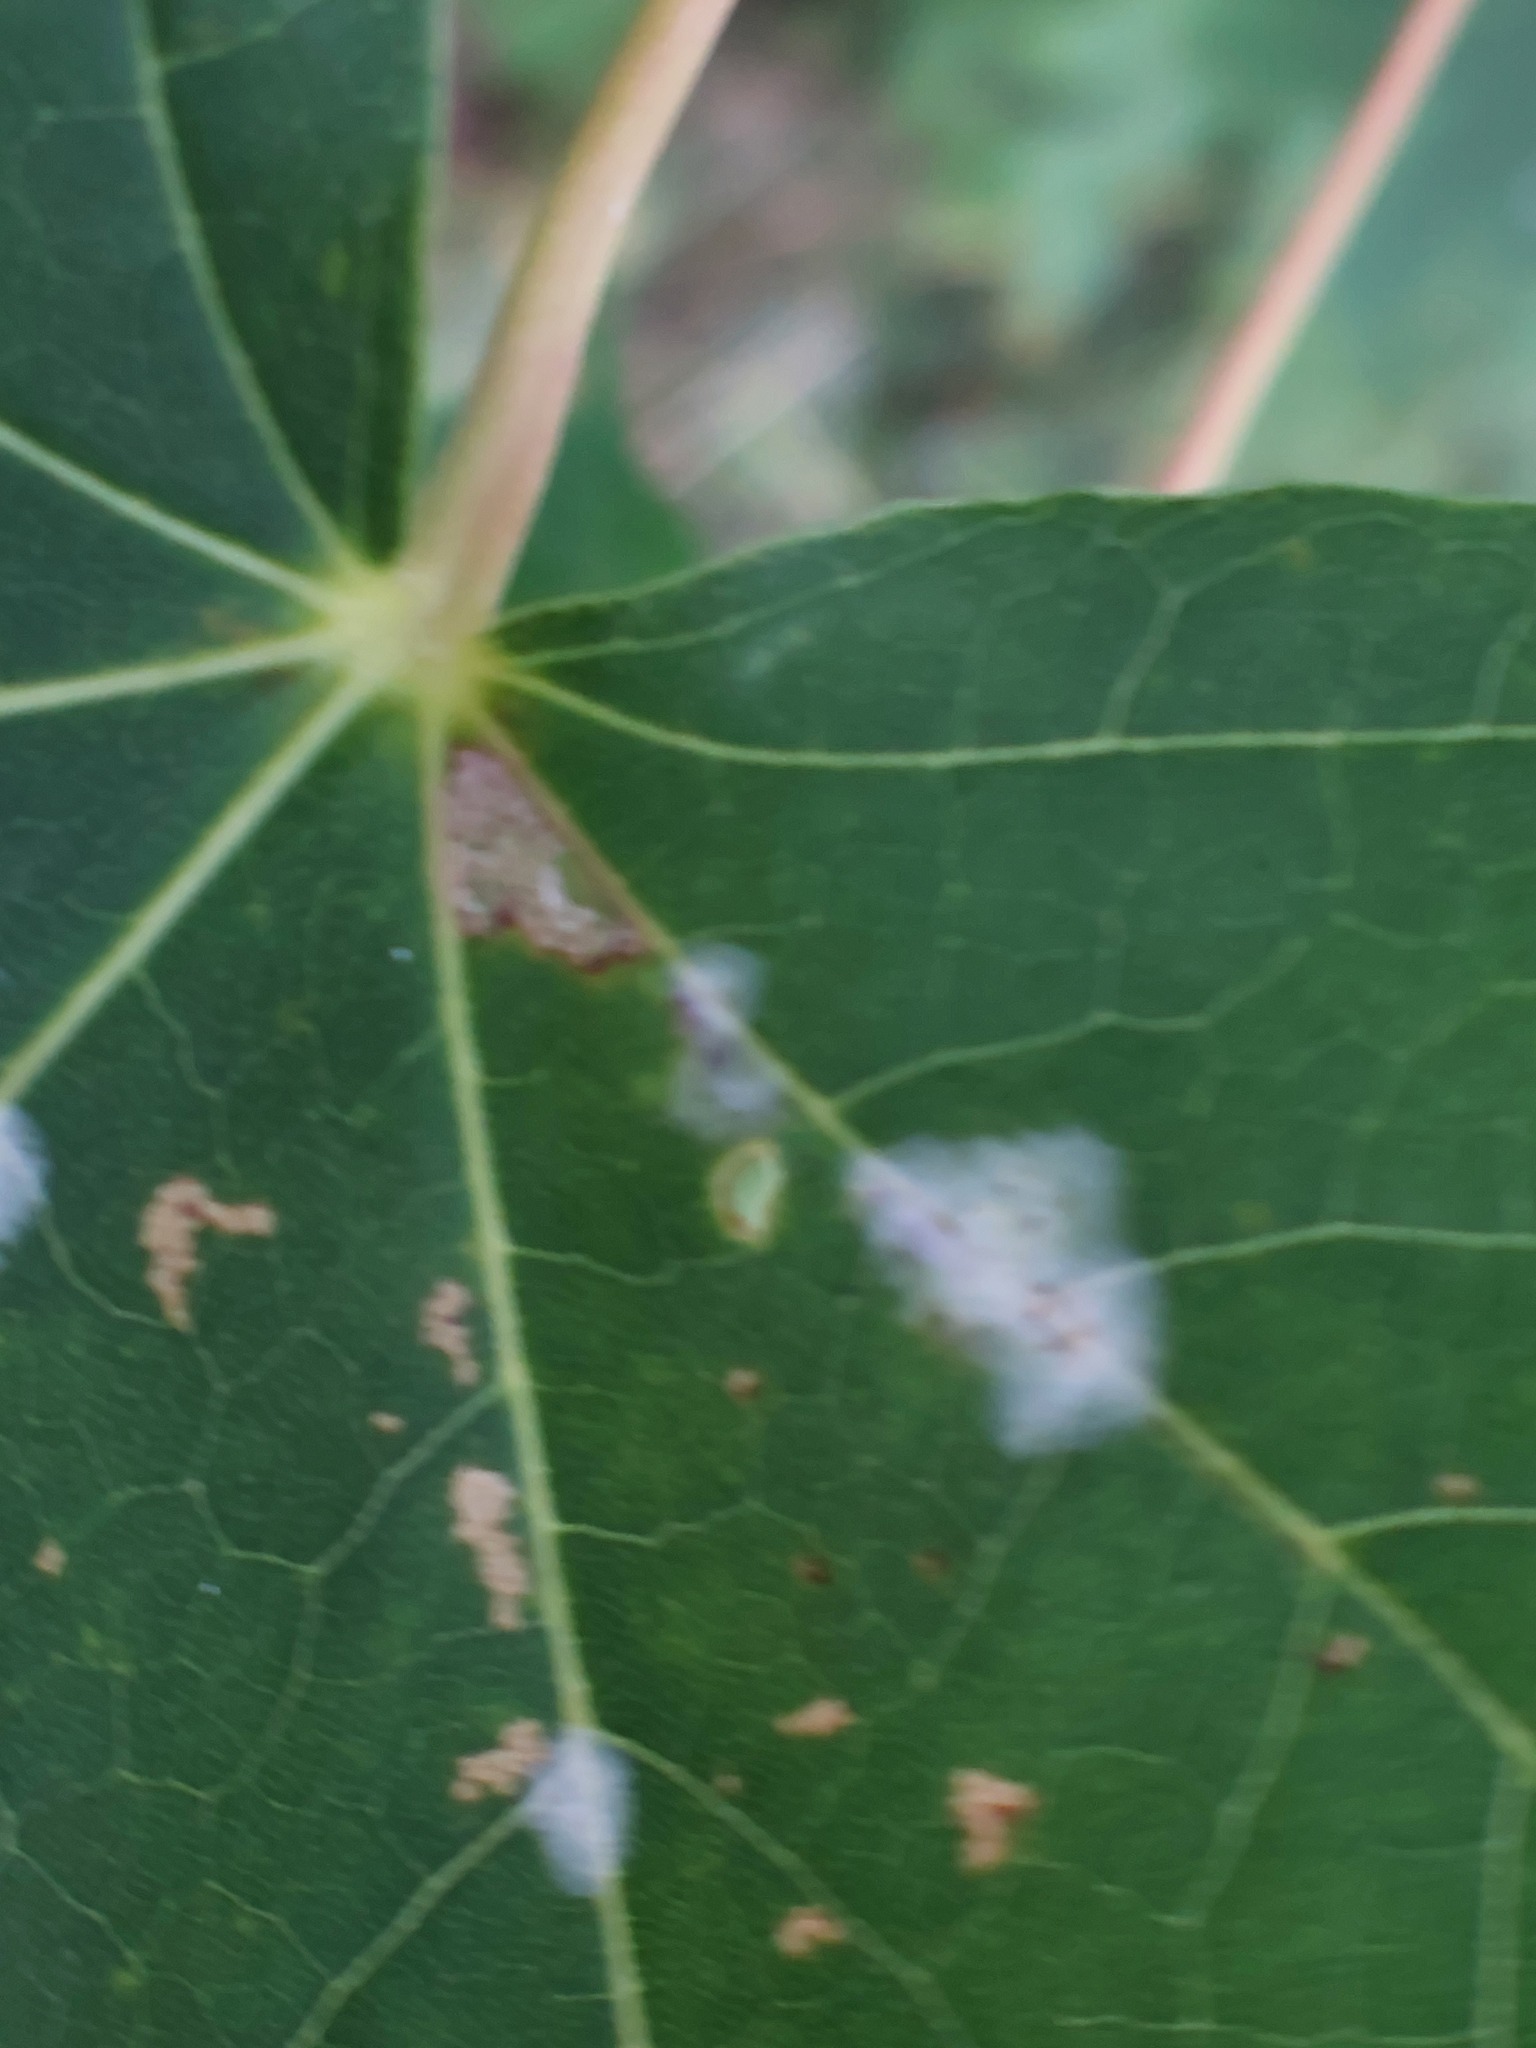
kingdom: Fungi
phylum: Ascomycota
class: Leotiomycetes
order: Helotiales
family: Erysiphaceae
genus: Sawadaea
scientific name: Sawadaea tulasnei
